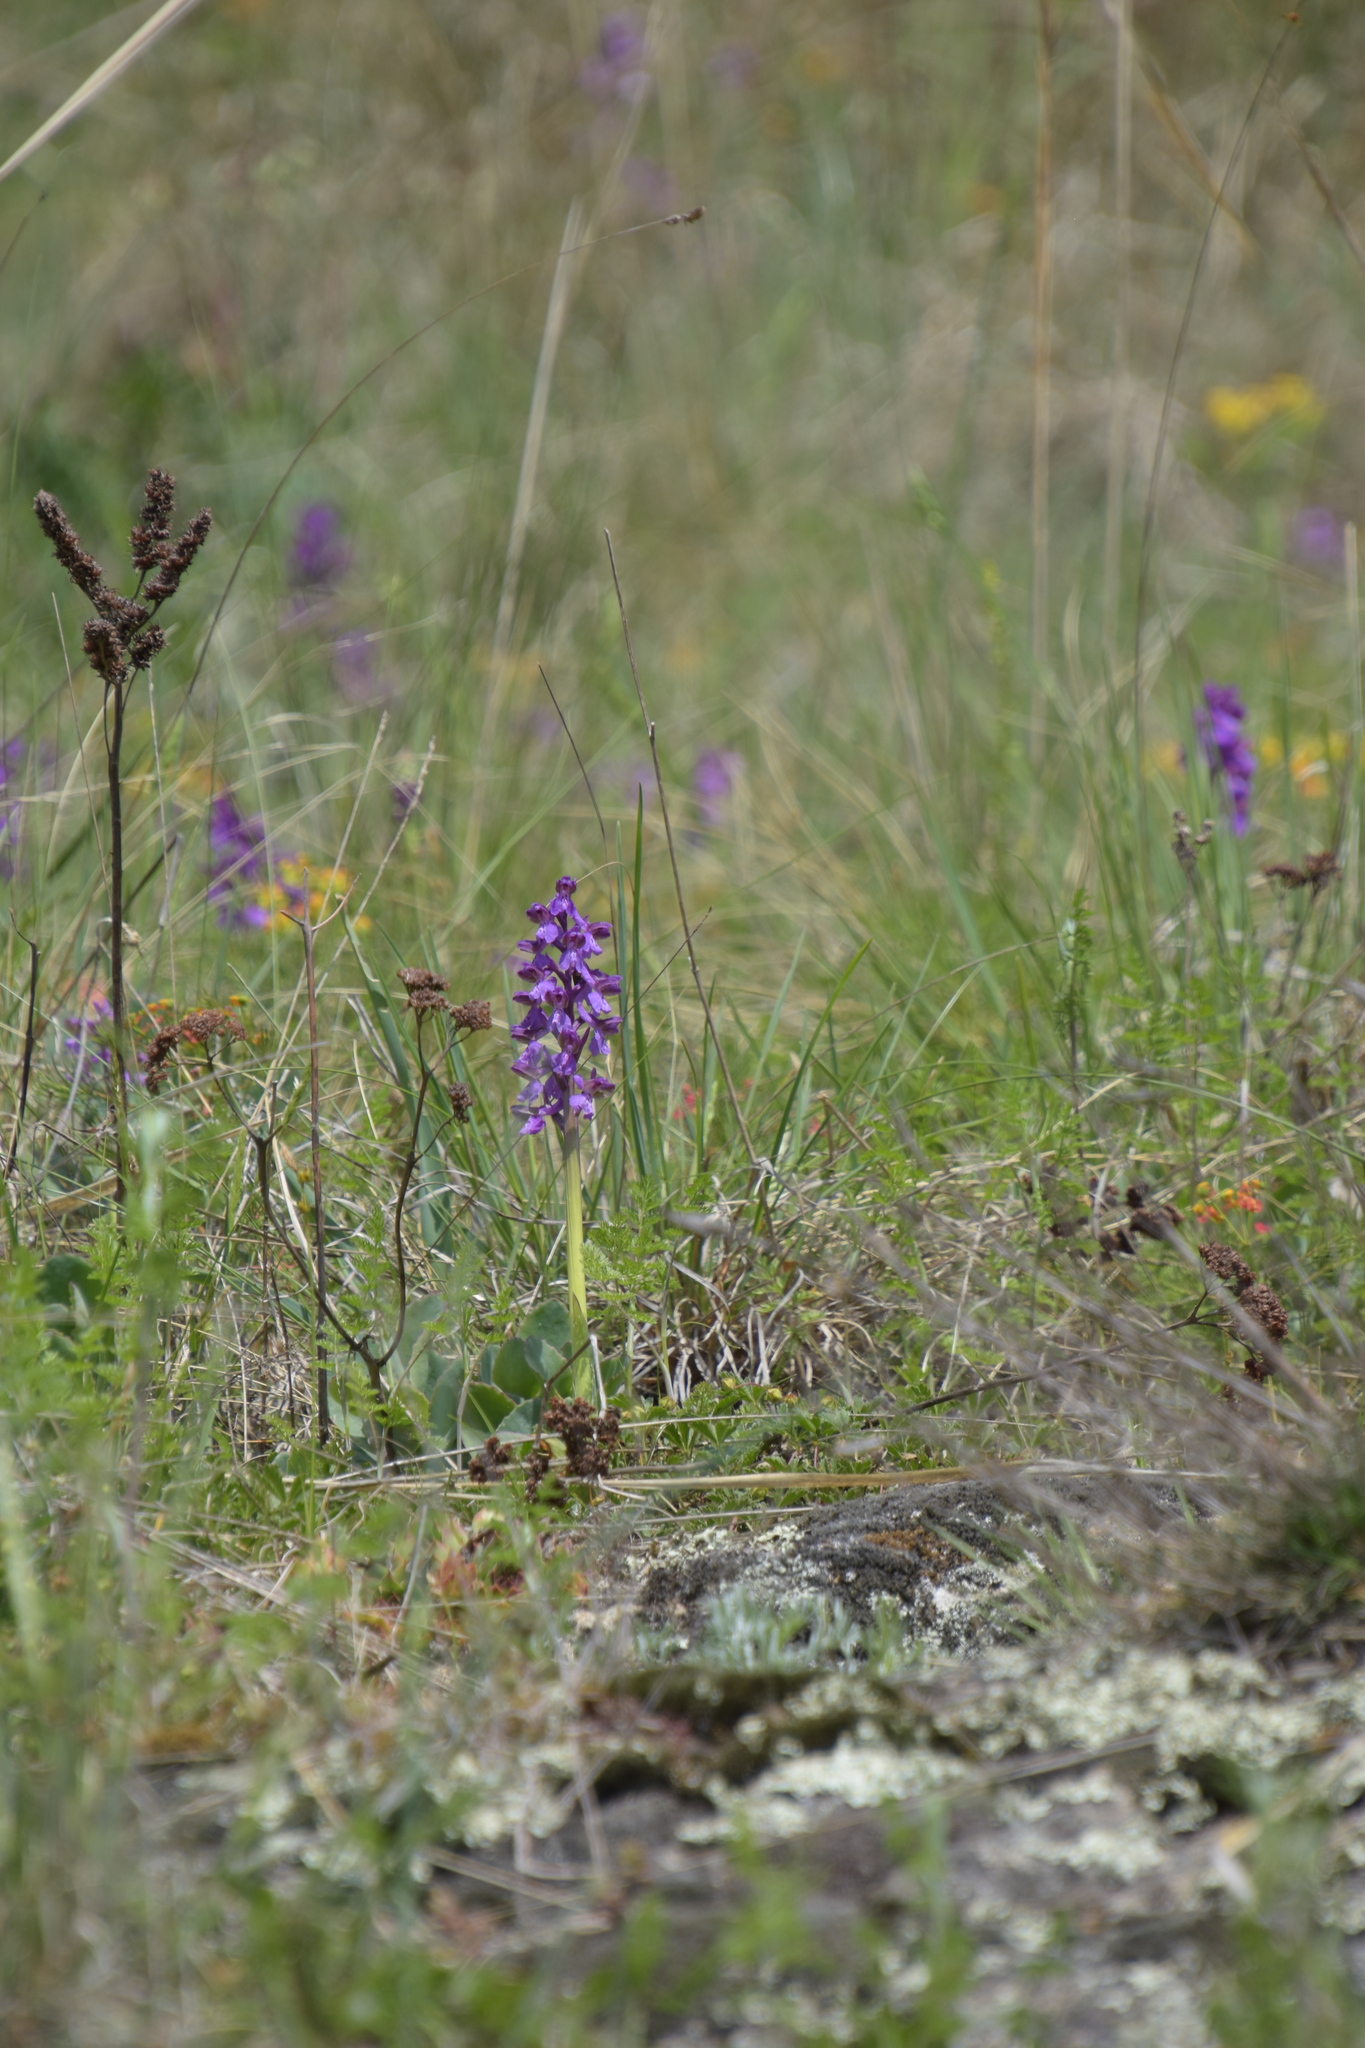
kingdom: Plantae
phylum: Tracheophyta
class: Liliopsida
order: Asparagales
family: Orchidaceae
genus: Anacamptis
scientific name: Anacamptis morio
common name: Green-winged orchid
